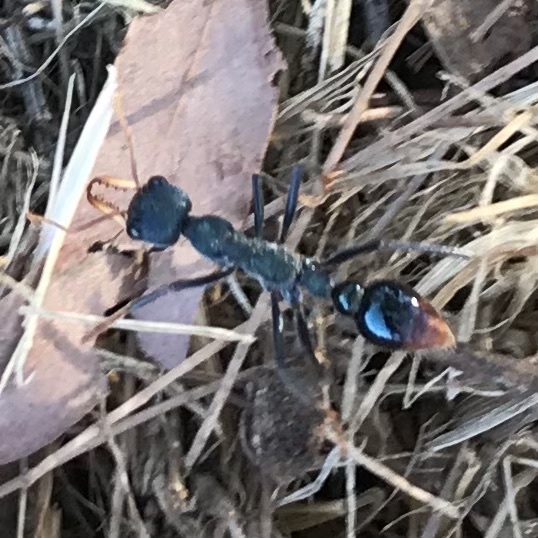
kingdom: Animalia
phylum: Arthropoda
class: Insecta
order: Hymenoptera
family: Formicidae
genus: Myrmecia
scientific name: Myrmecia tarsata
